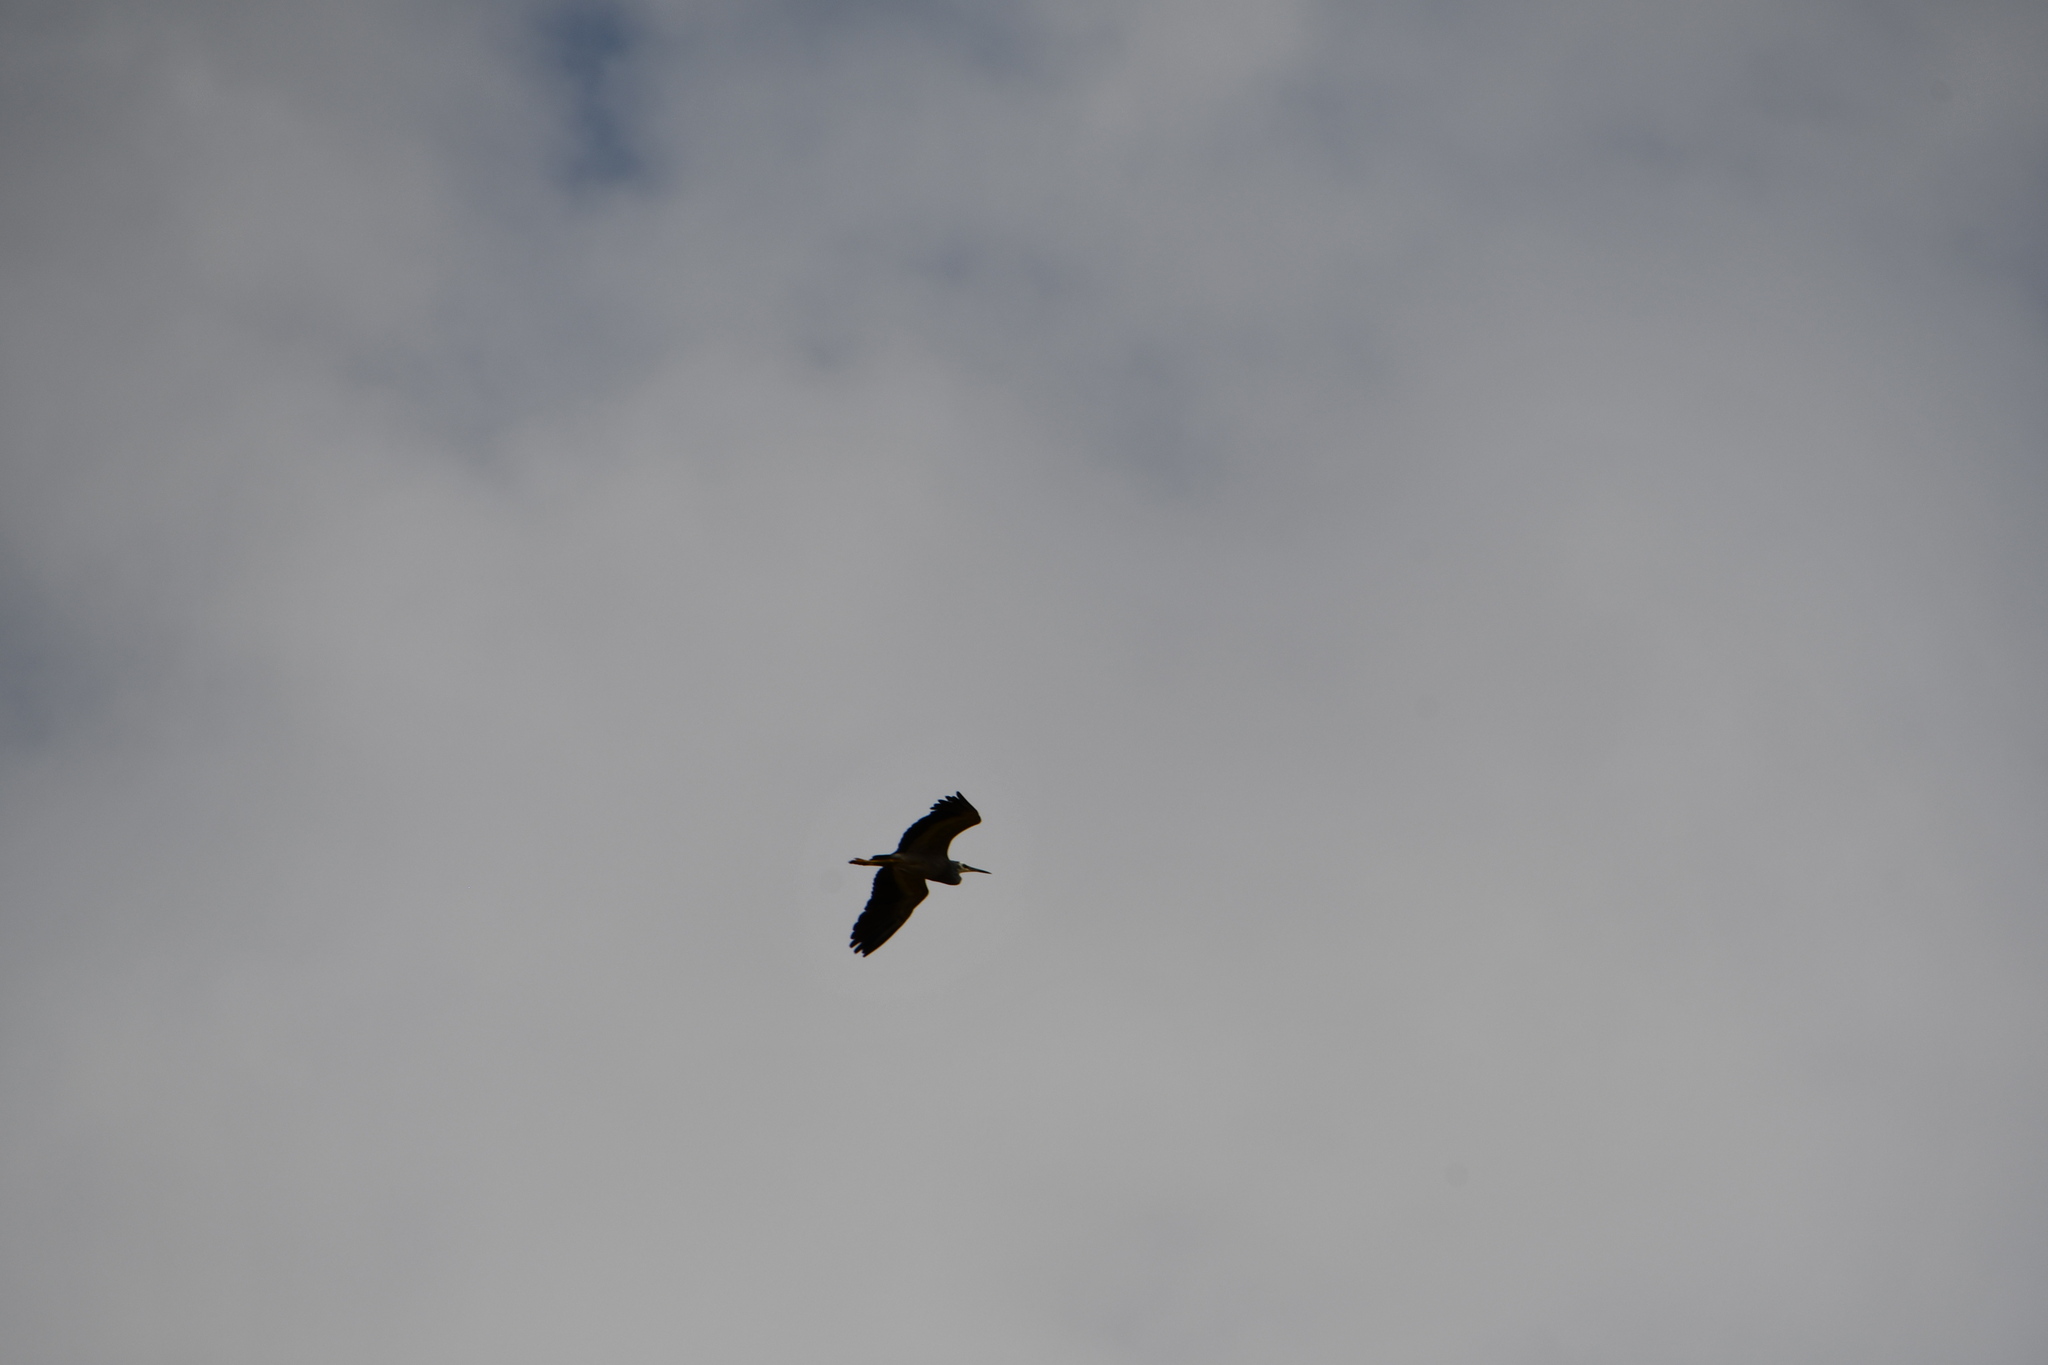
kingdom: Animalia
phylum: Chordata
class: Aves
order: Pelecaniformes
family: Ardeidae
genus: Egretta
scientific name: Egretta novaehollandiae
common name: White-faced heron
